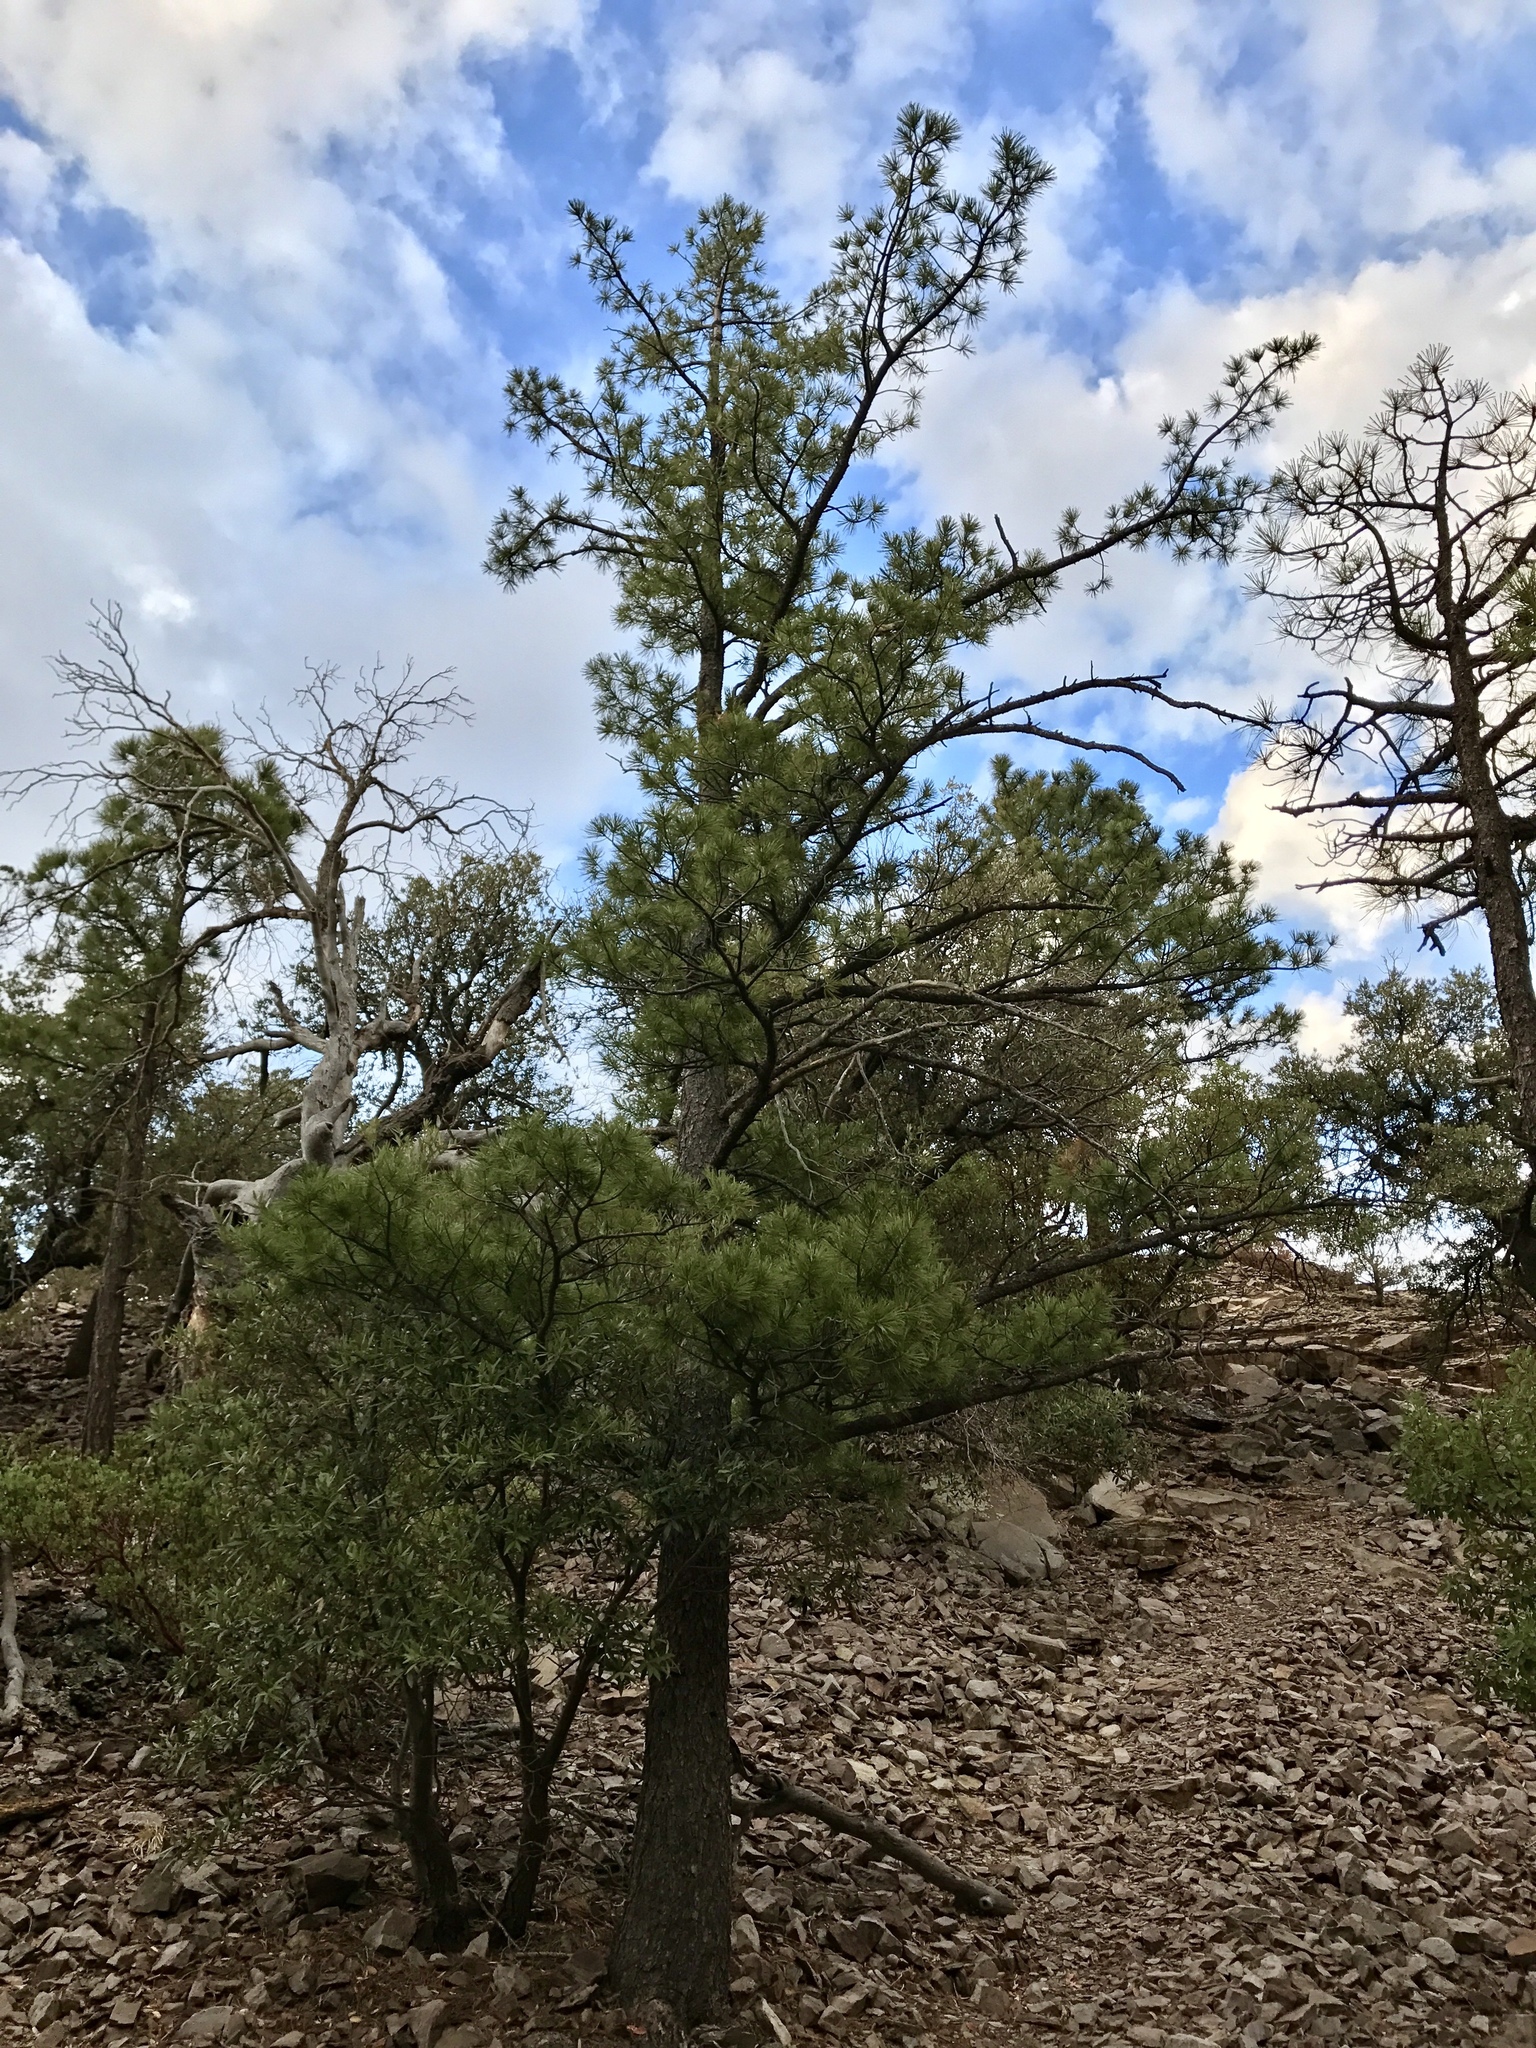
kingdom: Plantae
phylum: Tracheophyta
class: Pinopsida
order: Pinales
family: Pinaceae
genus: Pinus
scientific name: Pinus strobiformis
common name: Southwestern white pine
